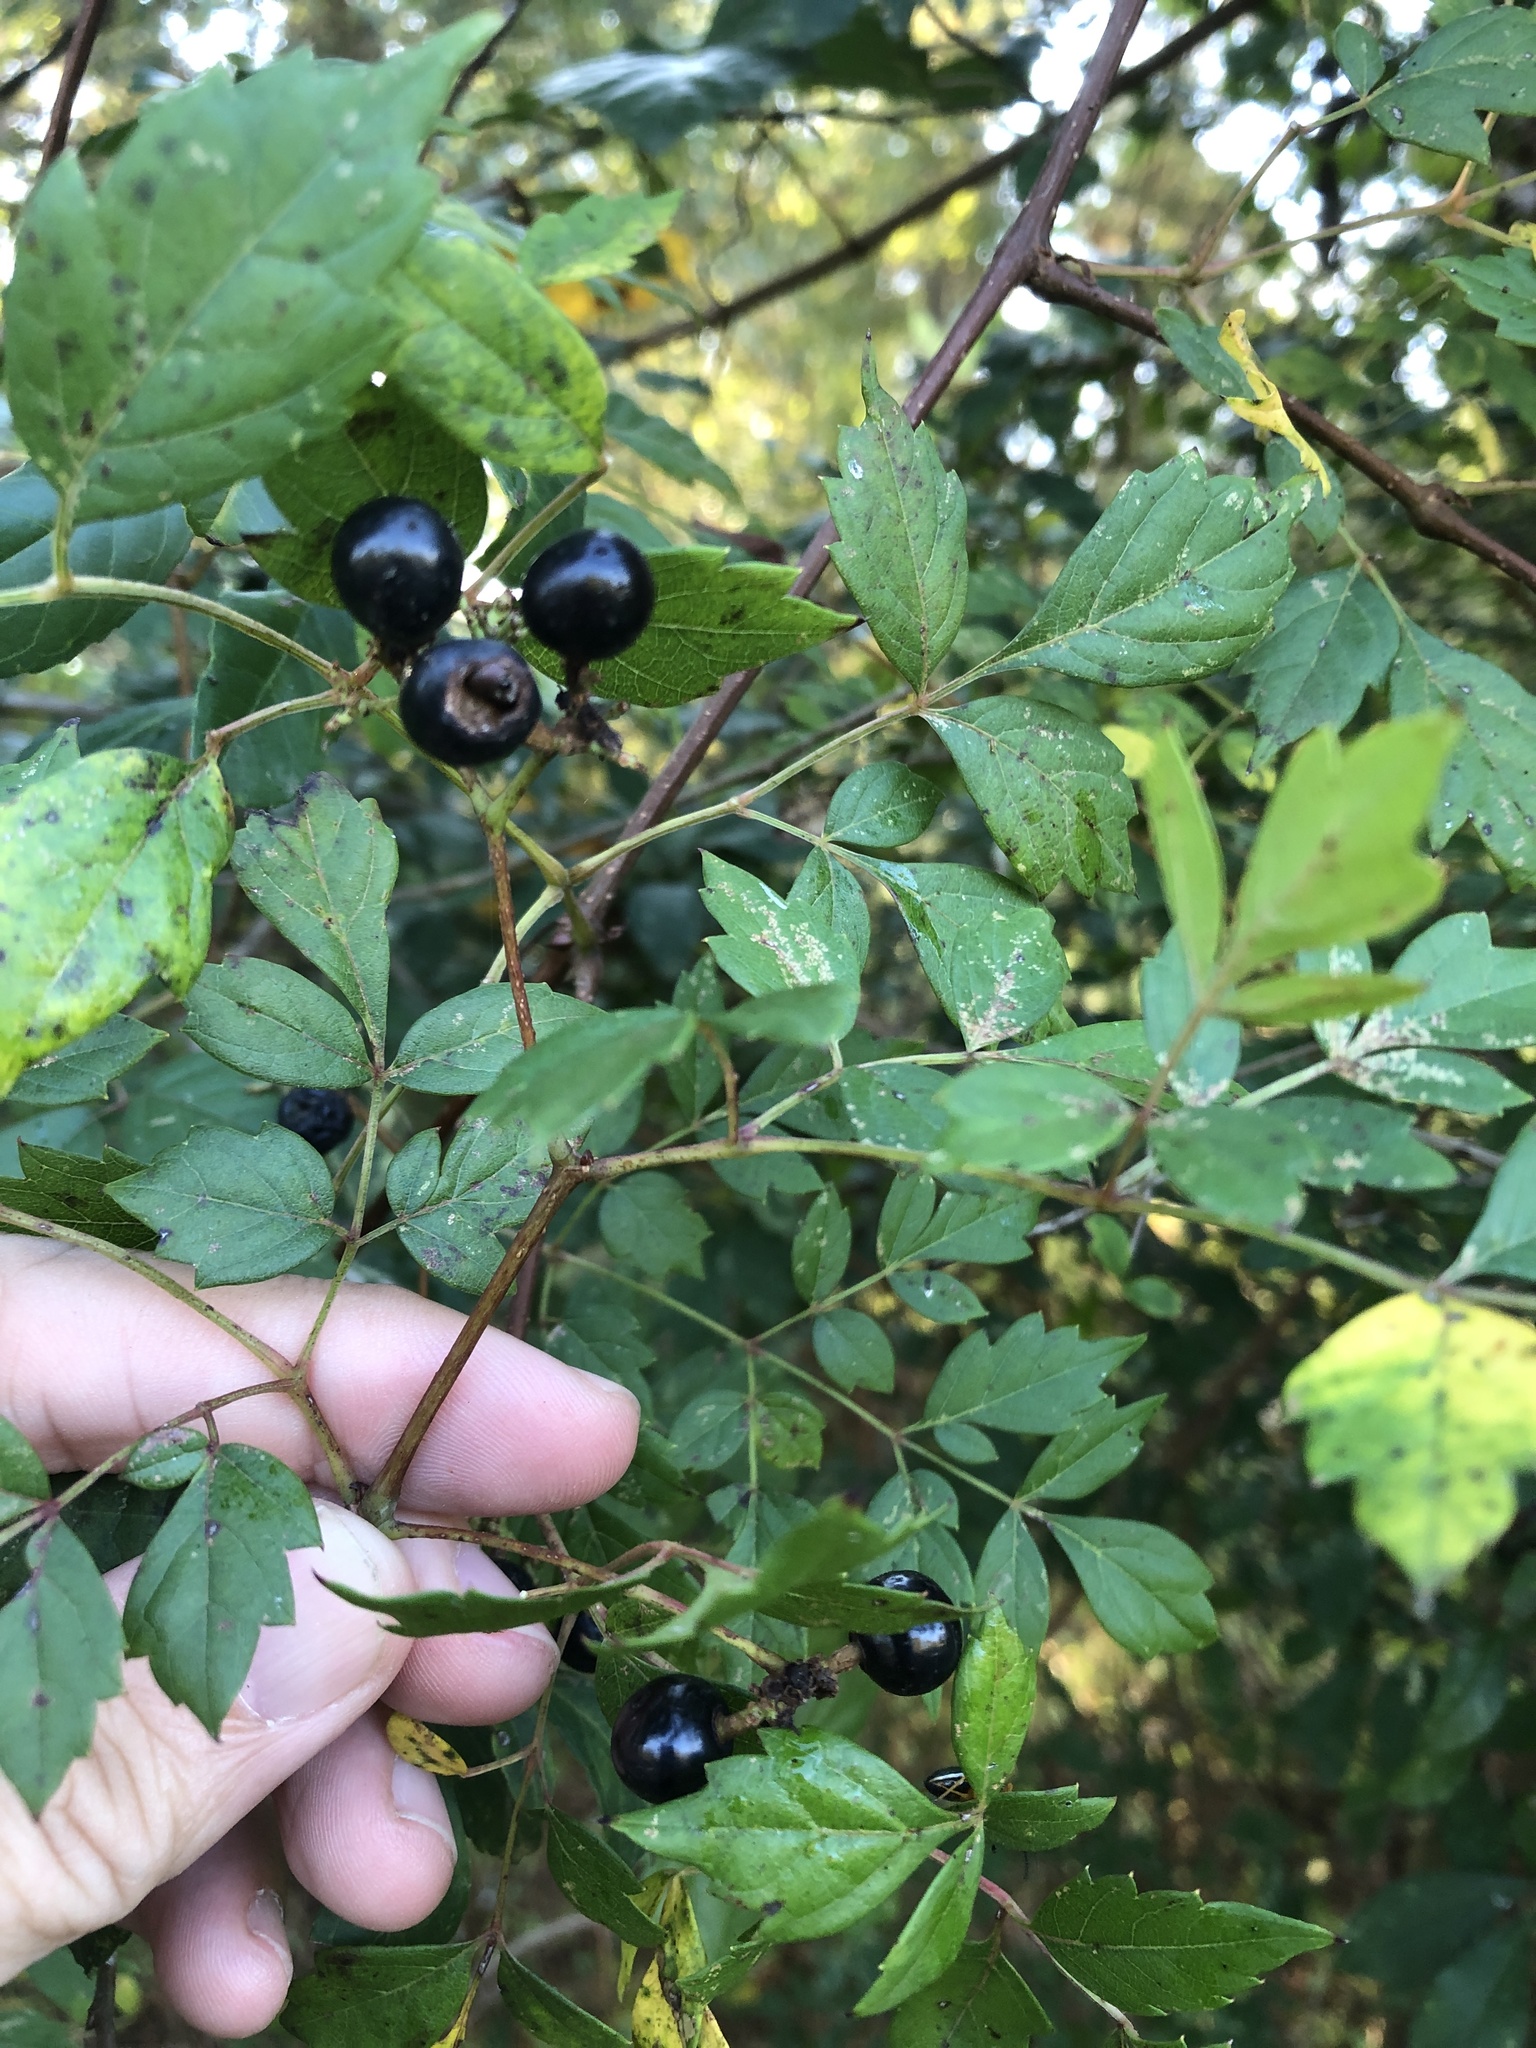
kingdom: Plantae
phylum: Tracheophyta
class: Magnoliopsida
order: Vitales
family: Vitaceae
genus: Nekemias
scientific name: Nekemias arborea
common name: Peppervine
